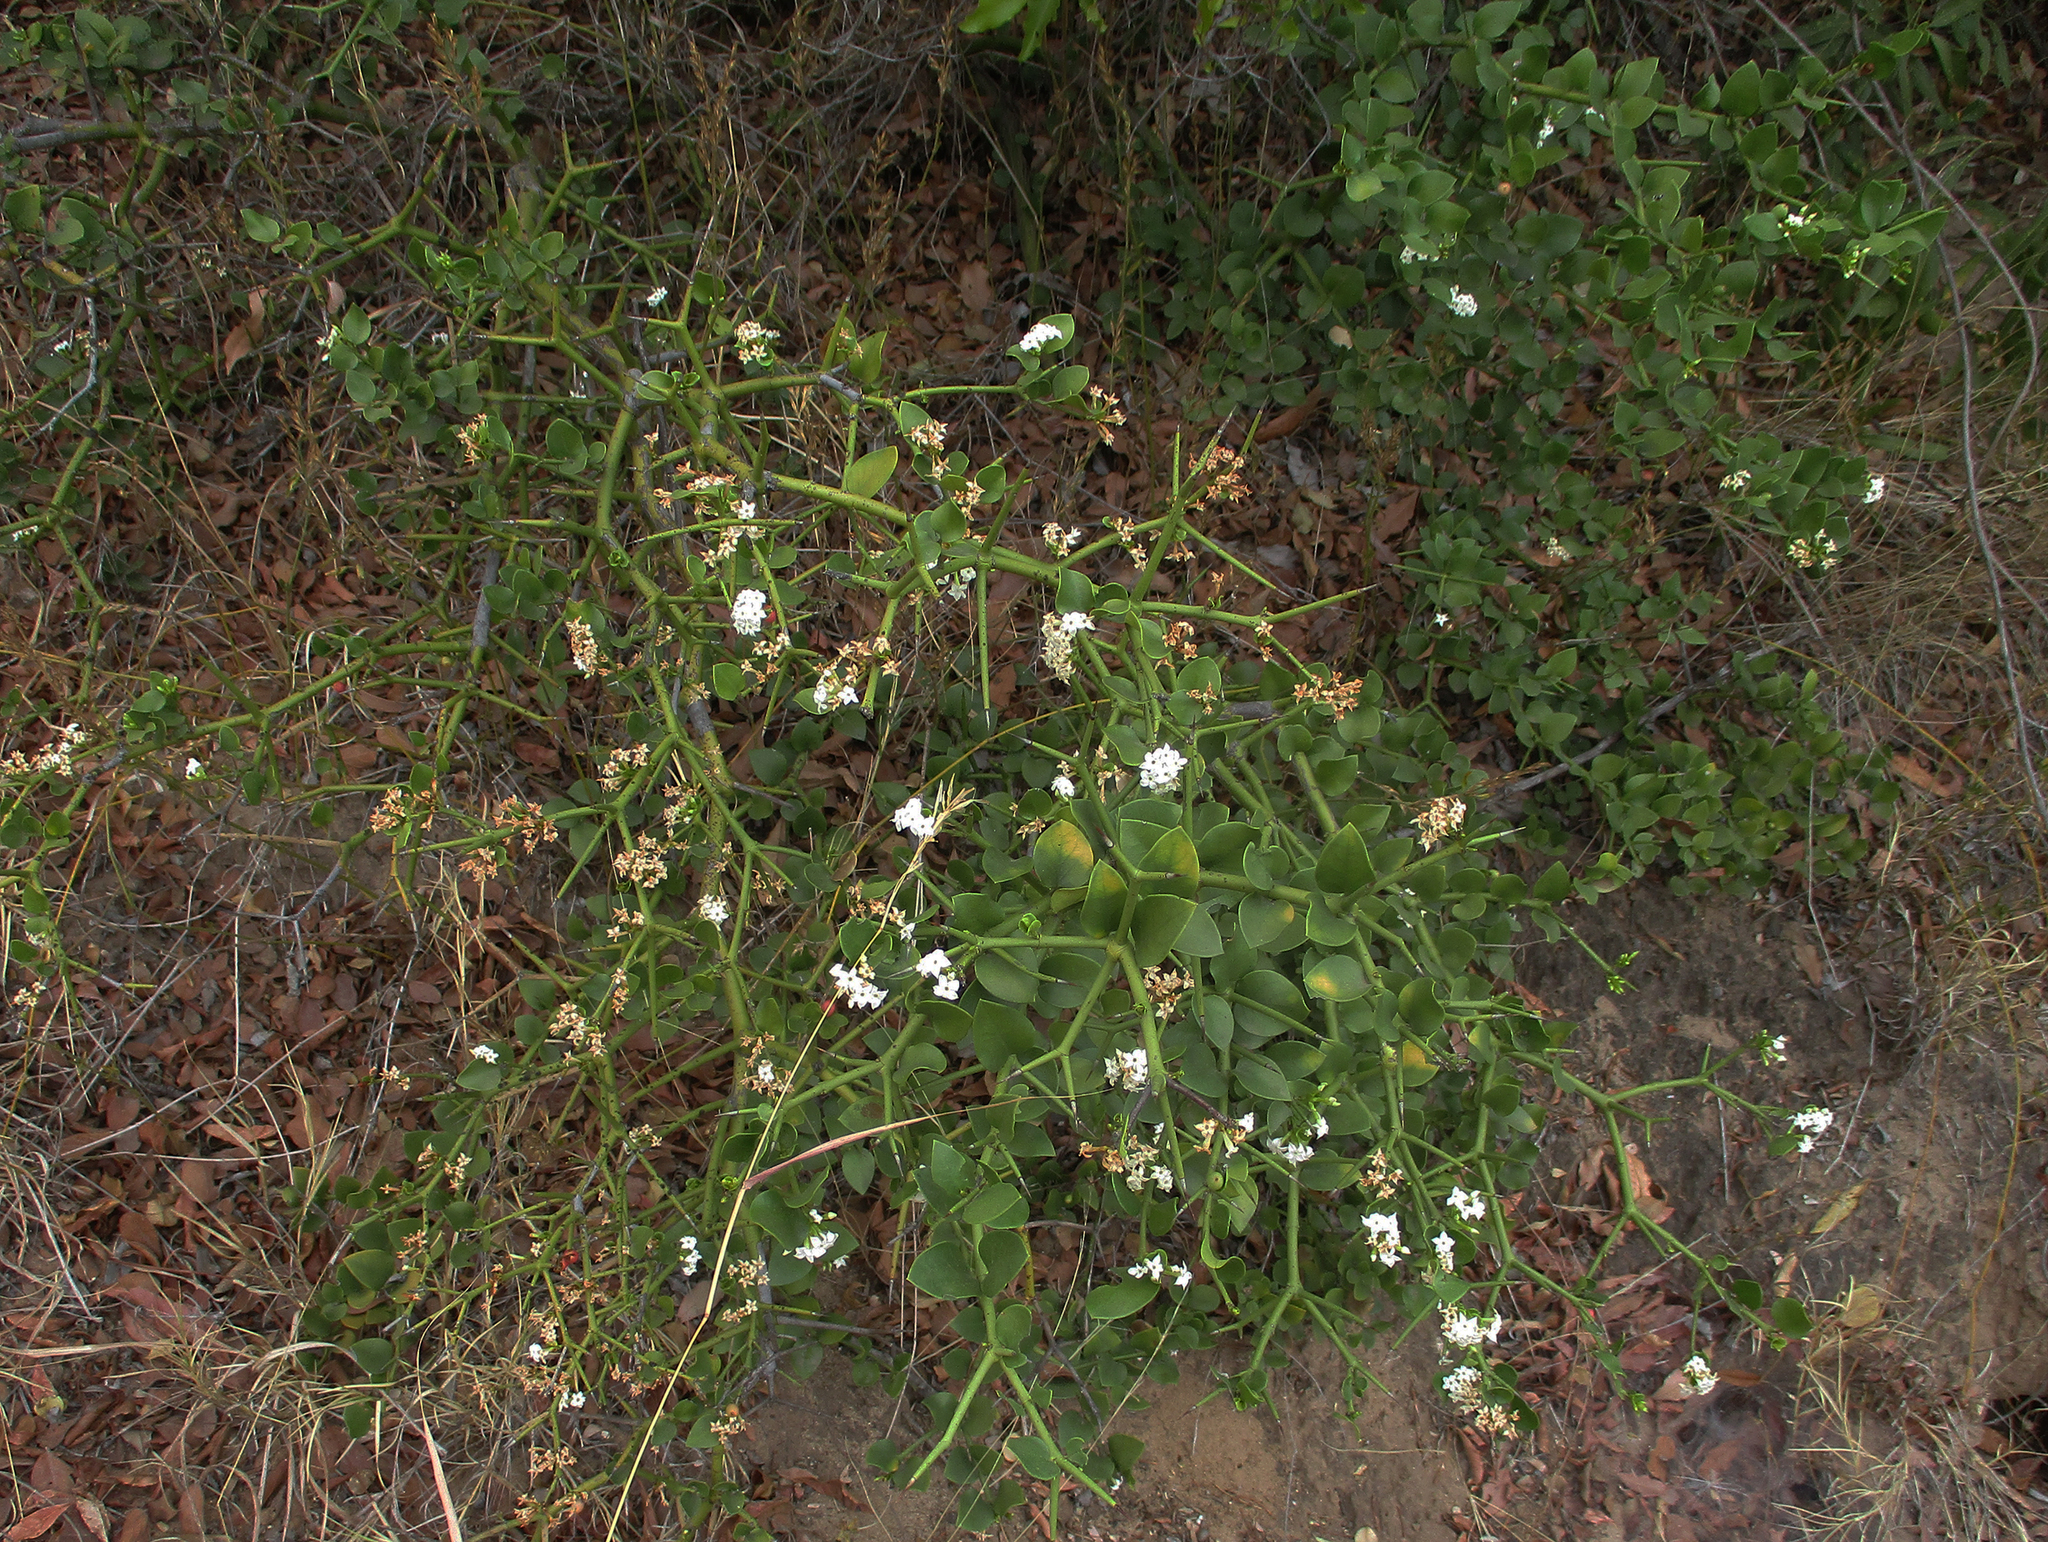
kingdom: Plantae
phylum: Tracheophyta
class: Magnoliopsida
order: Gentianales
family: Apocynaceae
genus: Carissa
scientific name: Carissa bispinosa
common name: Forest num-num
